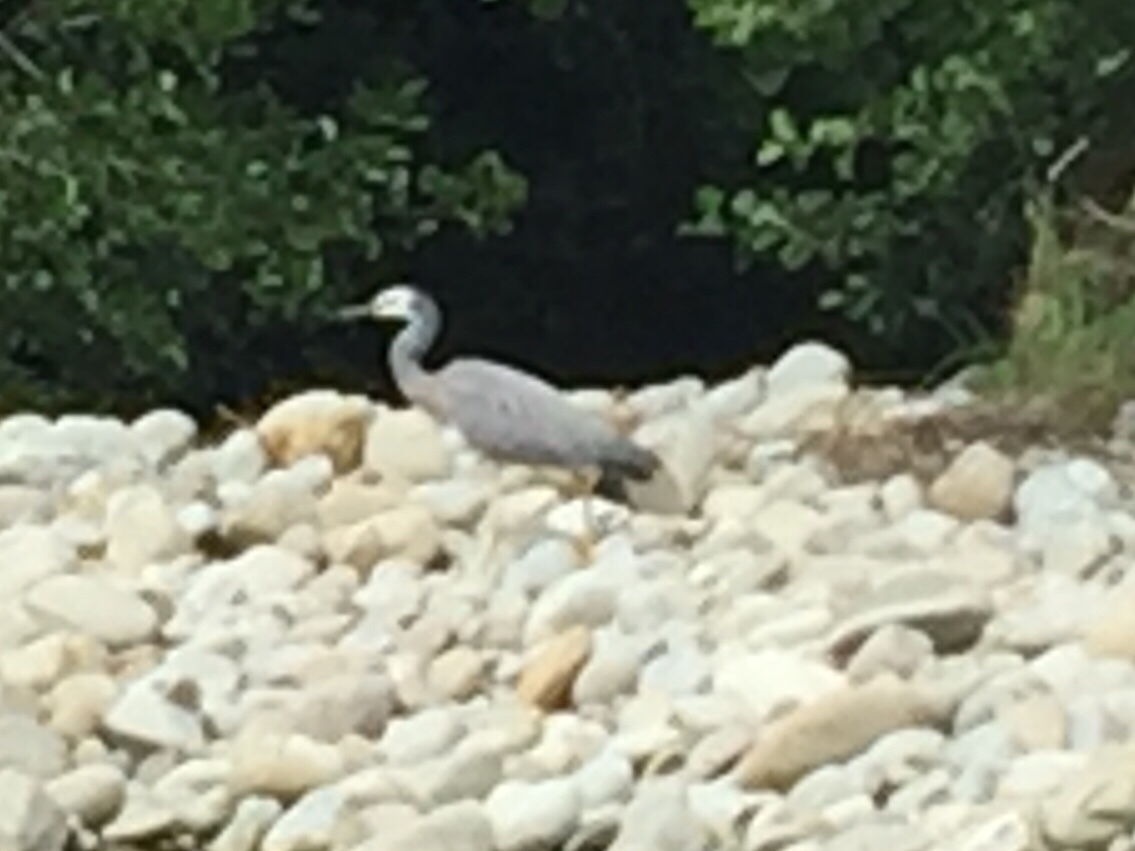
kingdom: Animalia
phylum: Chordata
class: Aves
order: Pelecaniformes
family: Ardeidae
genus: Egretta
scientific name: Egretta novaehollandiae
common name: White-faced heron
